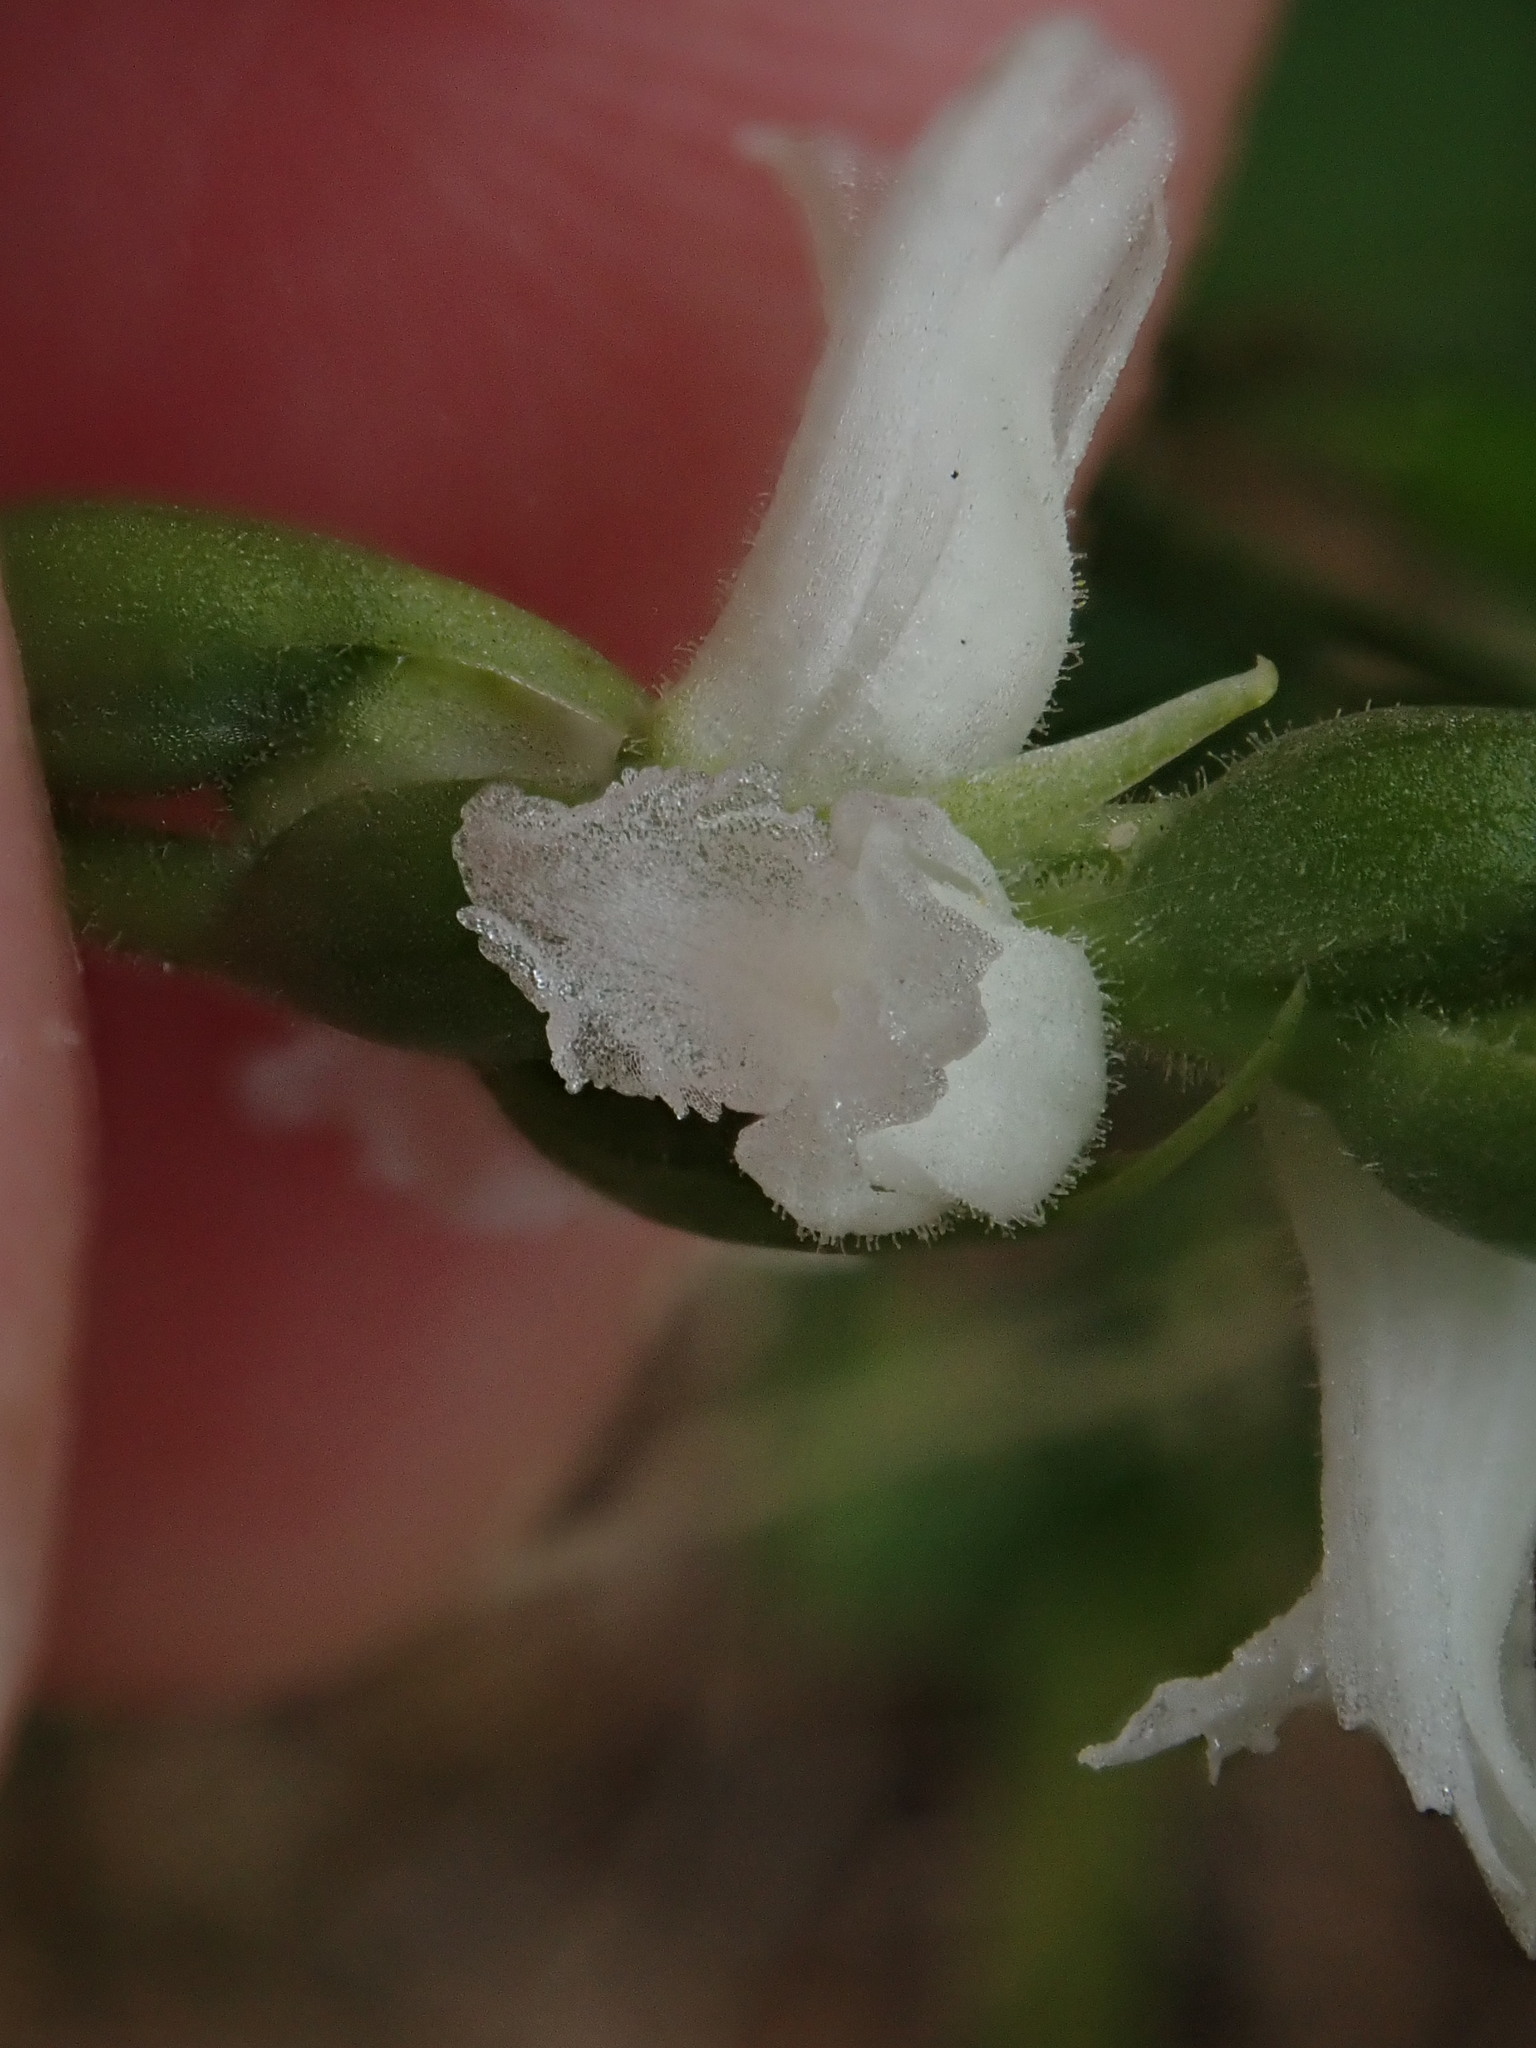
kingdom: Plantae
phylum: Tracheophyta
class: Liliopsida
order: Asparagales
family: Orchidaceae
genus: Spiranthes
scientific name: Spiranthes
